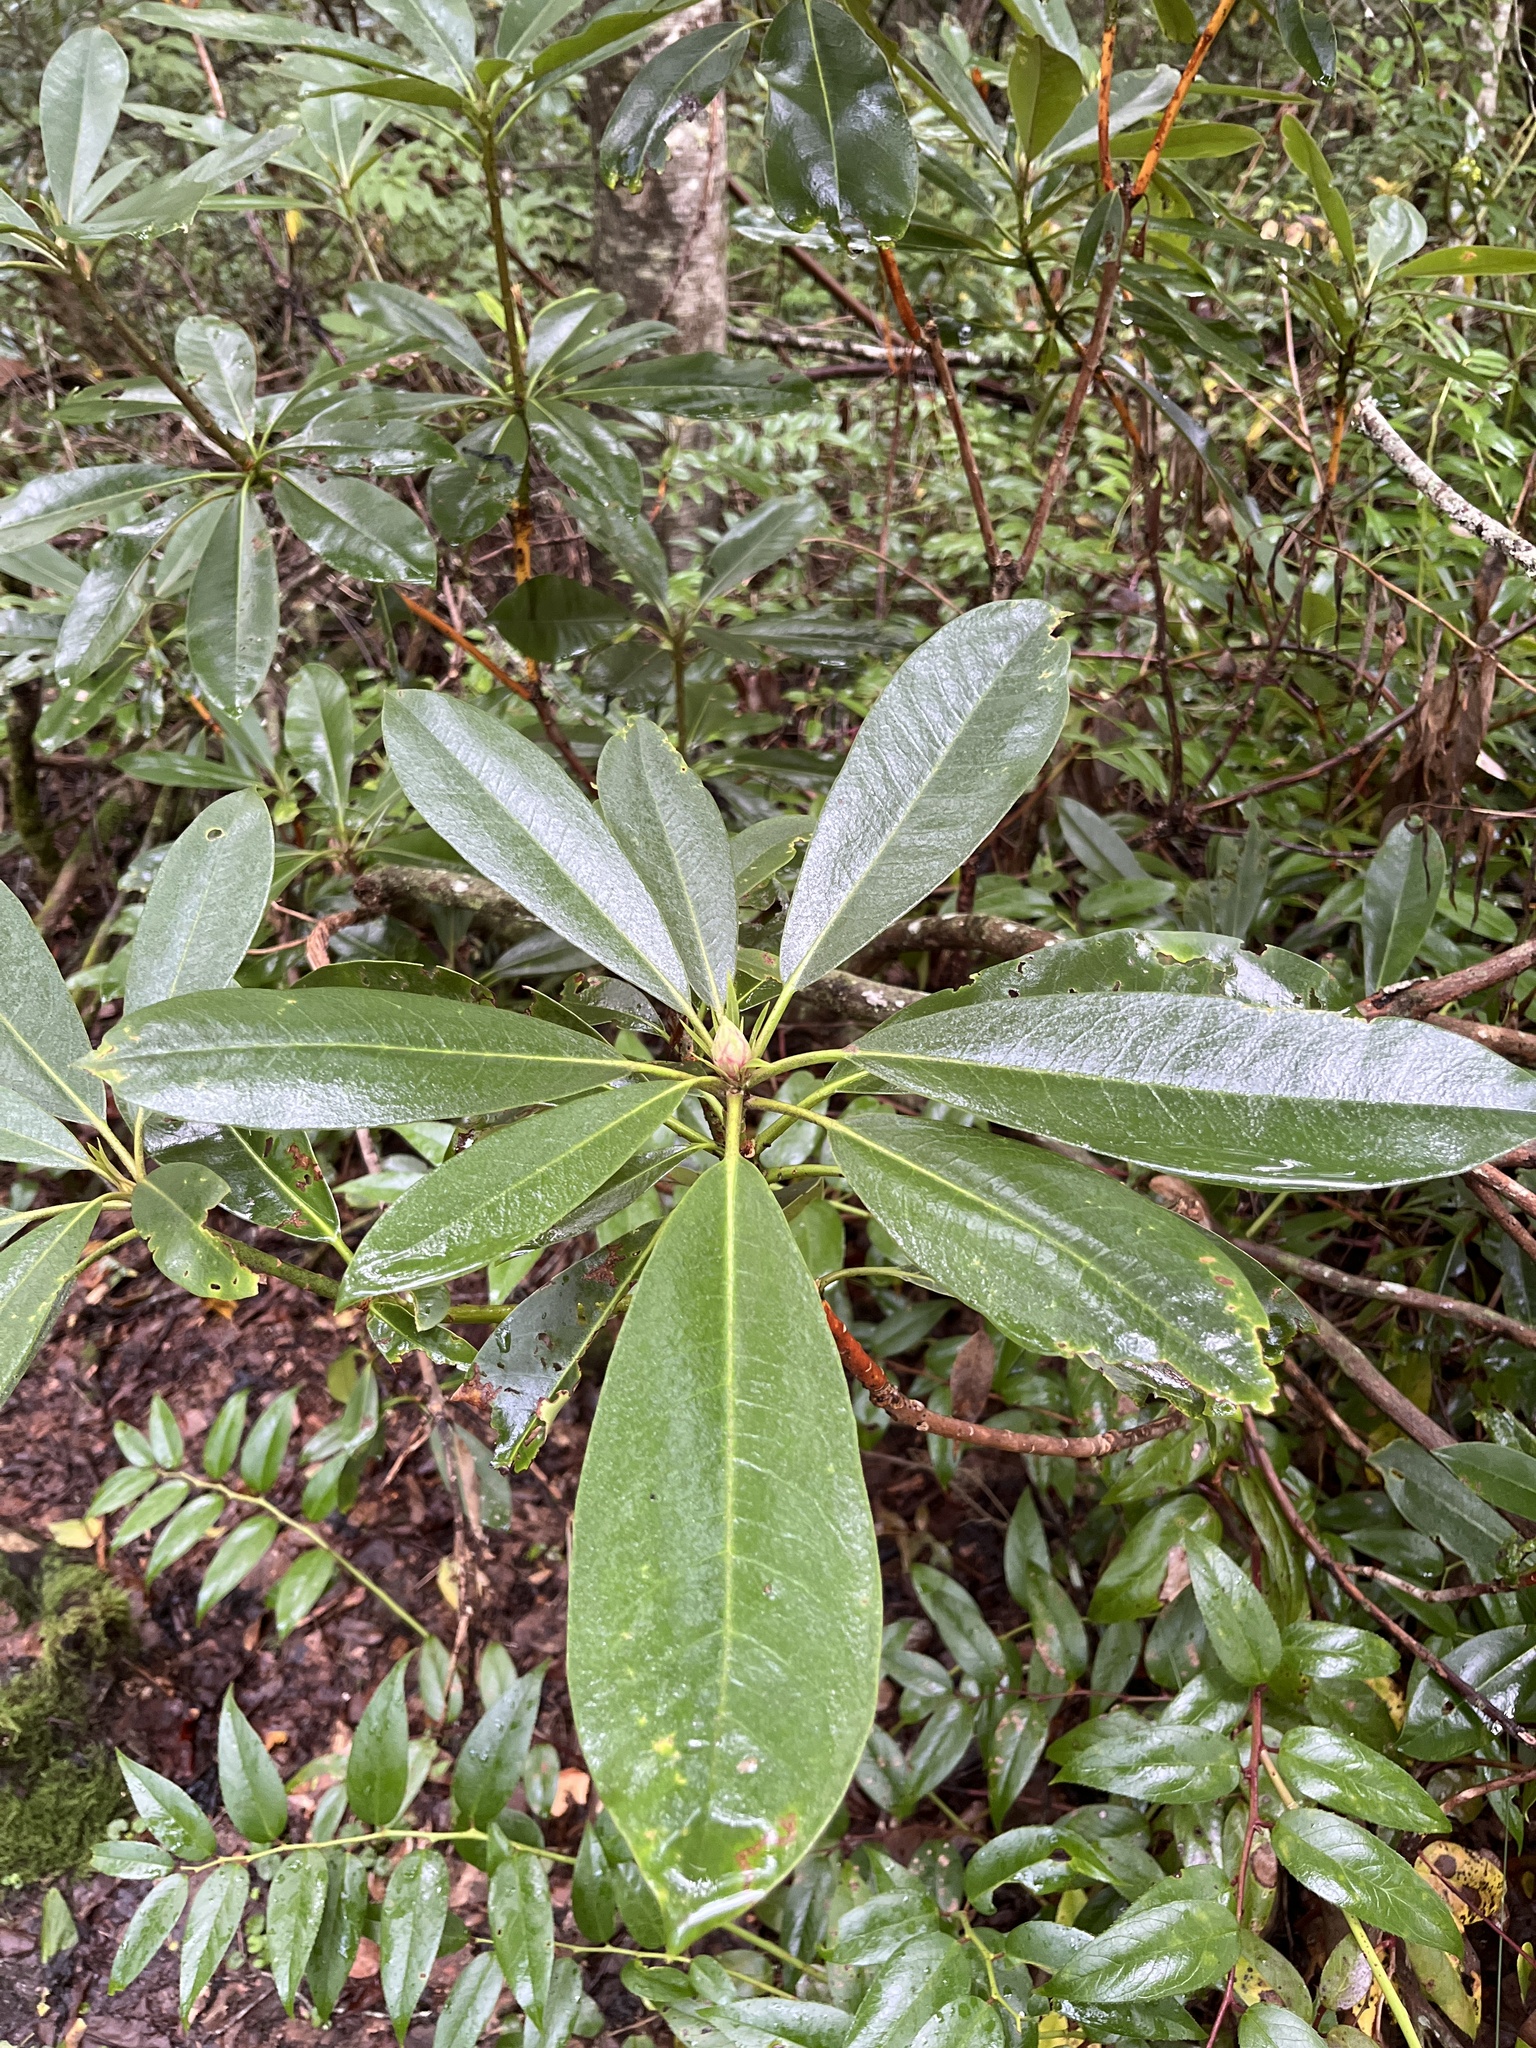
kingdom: Plantae
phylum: Tracheophyta
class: Magnoliopsida
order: Ericales
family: Ericaceae
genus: Rhododendron
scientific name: Rhododendron maximum
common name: Great rhododendron
